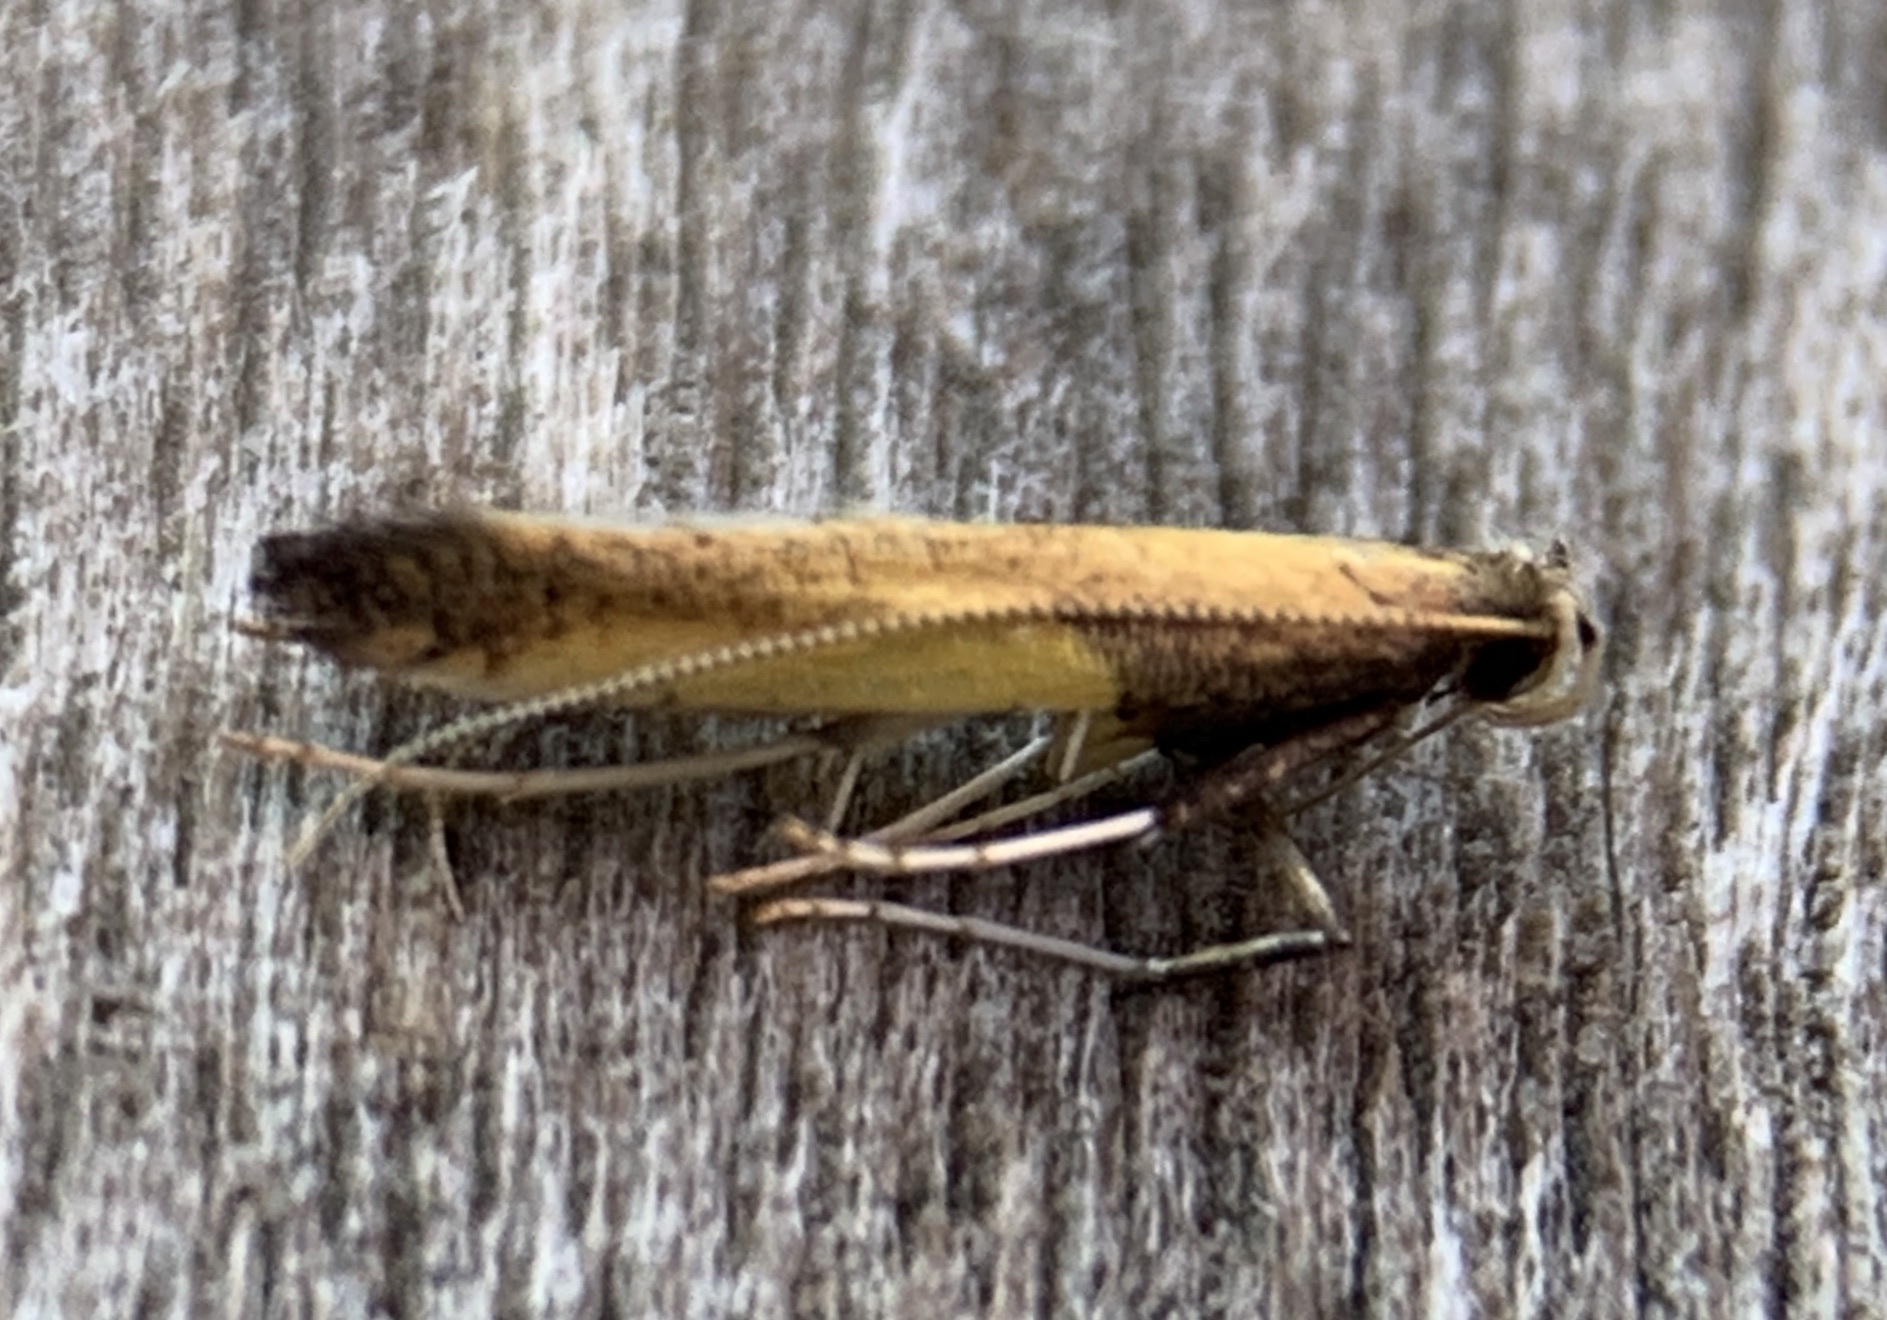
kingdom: Animalia
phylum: Arthropoda
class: Insecta
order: Lepidoptera
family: Gracillariidae
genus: Caloptilia
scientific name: Caloptilia azaleella
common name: Azalea leafminer
